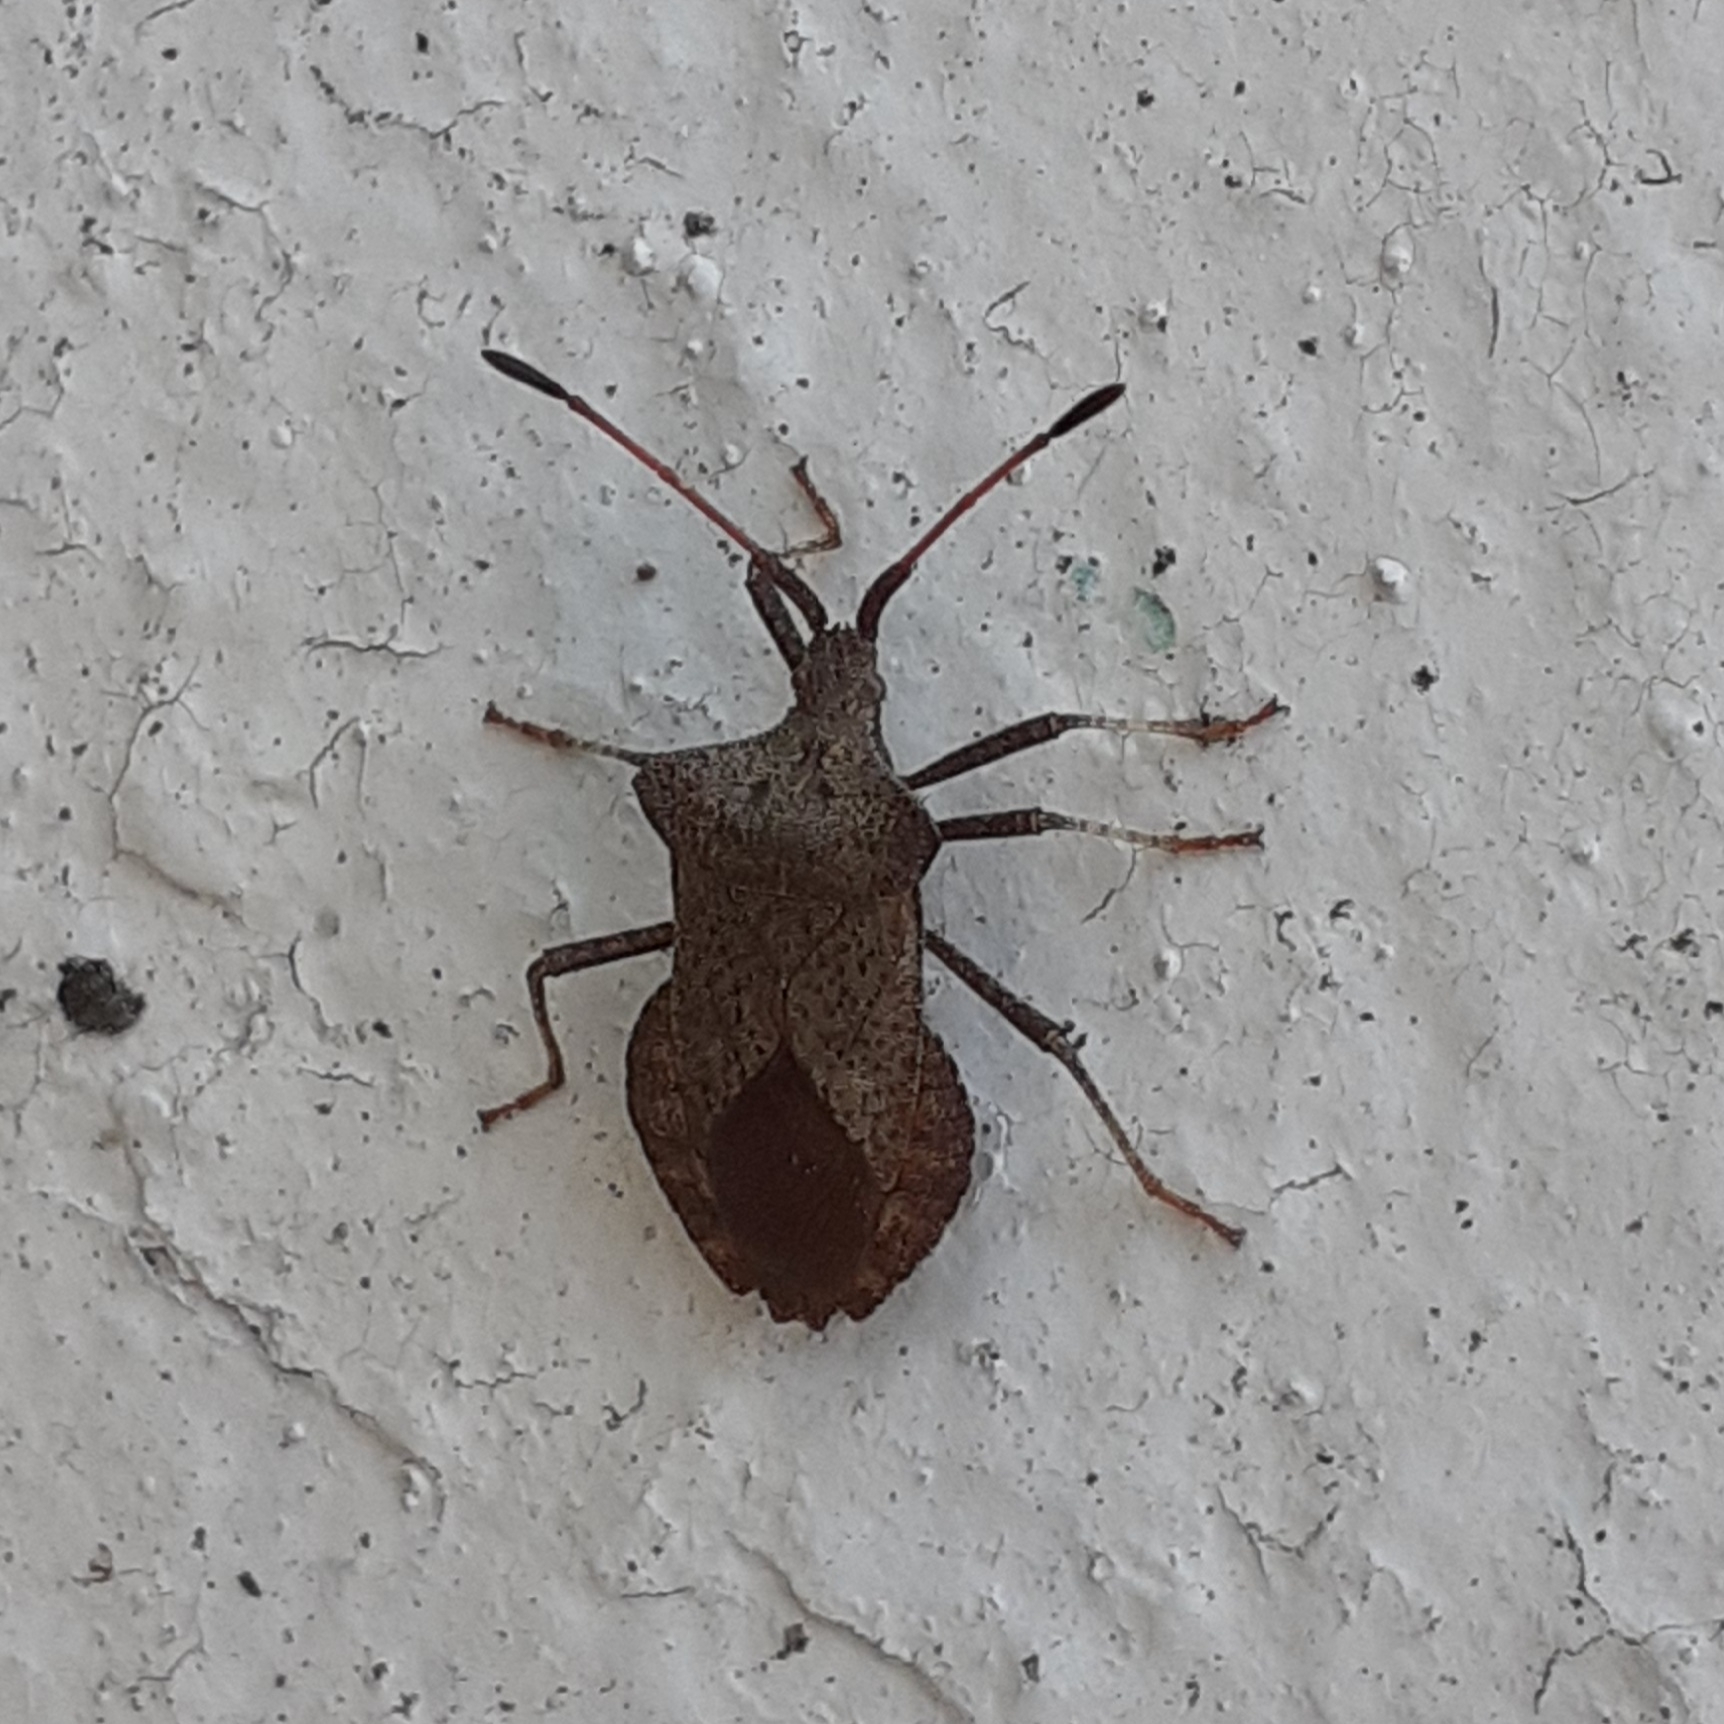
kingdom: Animalia
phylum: Arthropoda
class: Insecta
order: Hemiptera
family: Coreidae
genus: Coreus
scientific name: Coreus marginatus
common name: Dock bug
